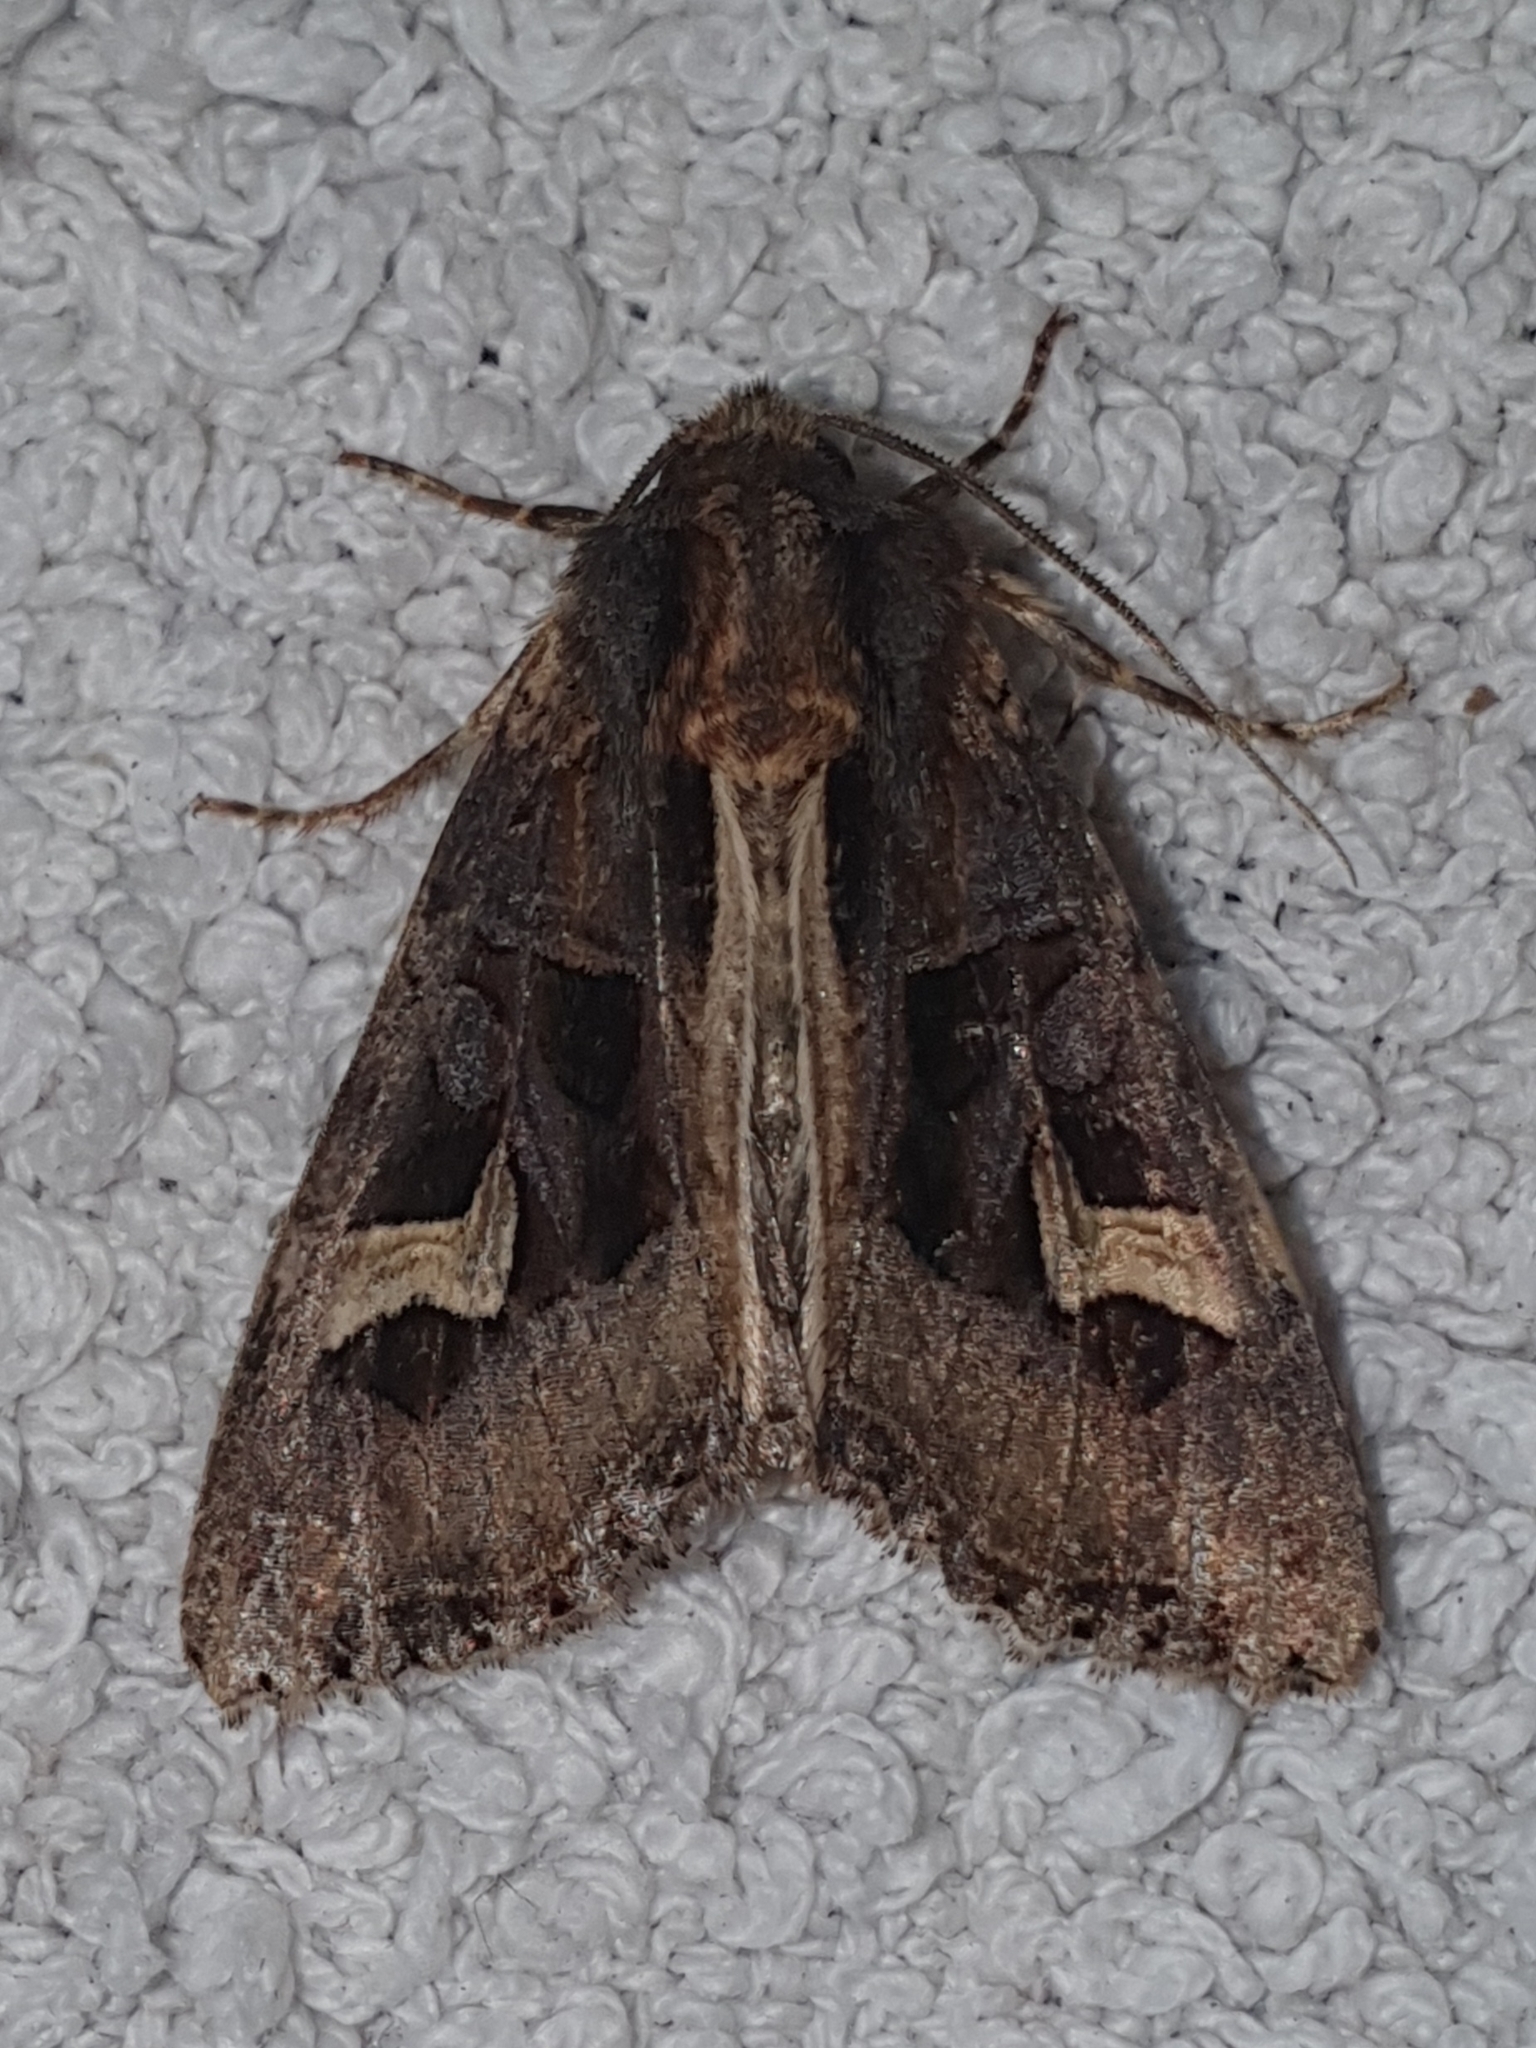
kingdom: Animalia
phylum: Arthropoda
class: Insecta
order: Lepidoptera
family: Noctuidae
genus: Trigonophora
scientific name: Trigonophora flammea
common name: Flame brocade
